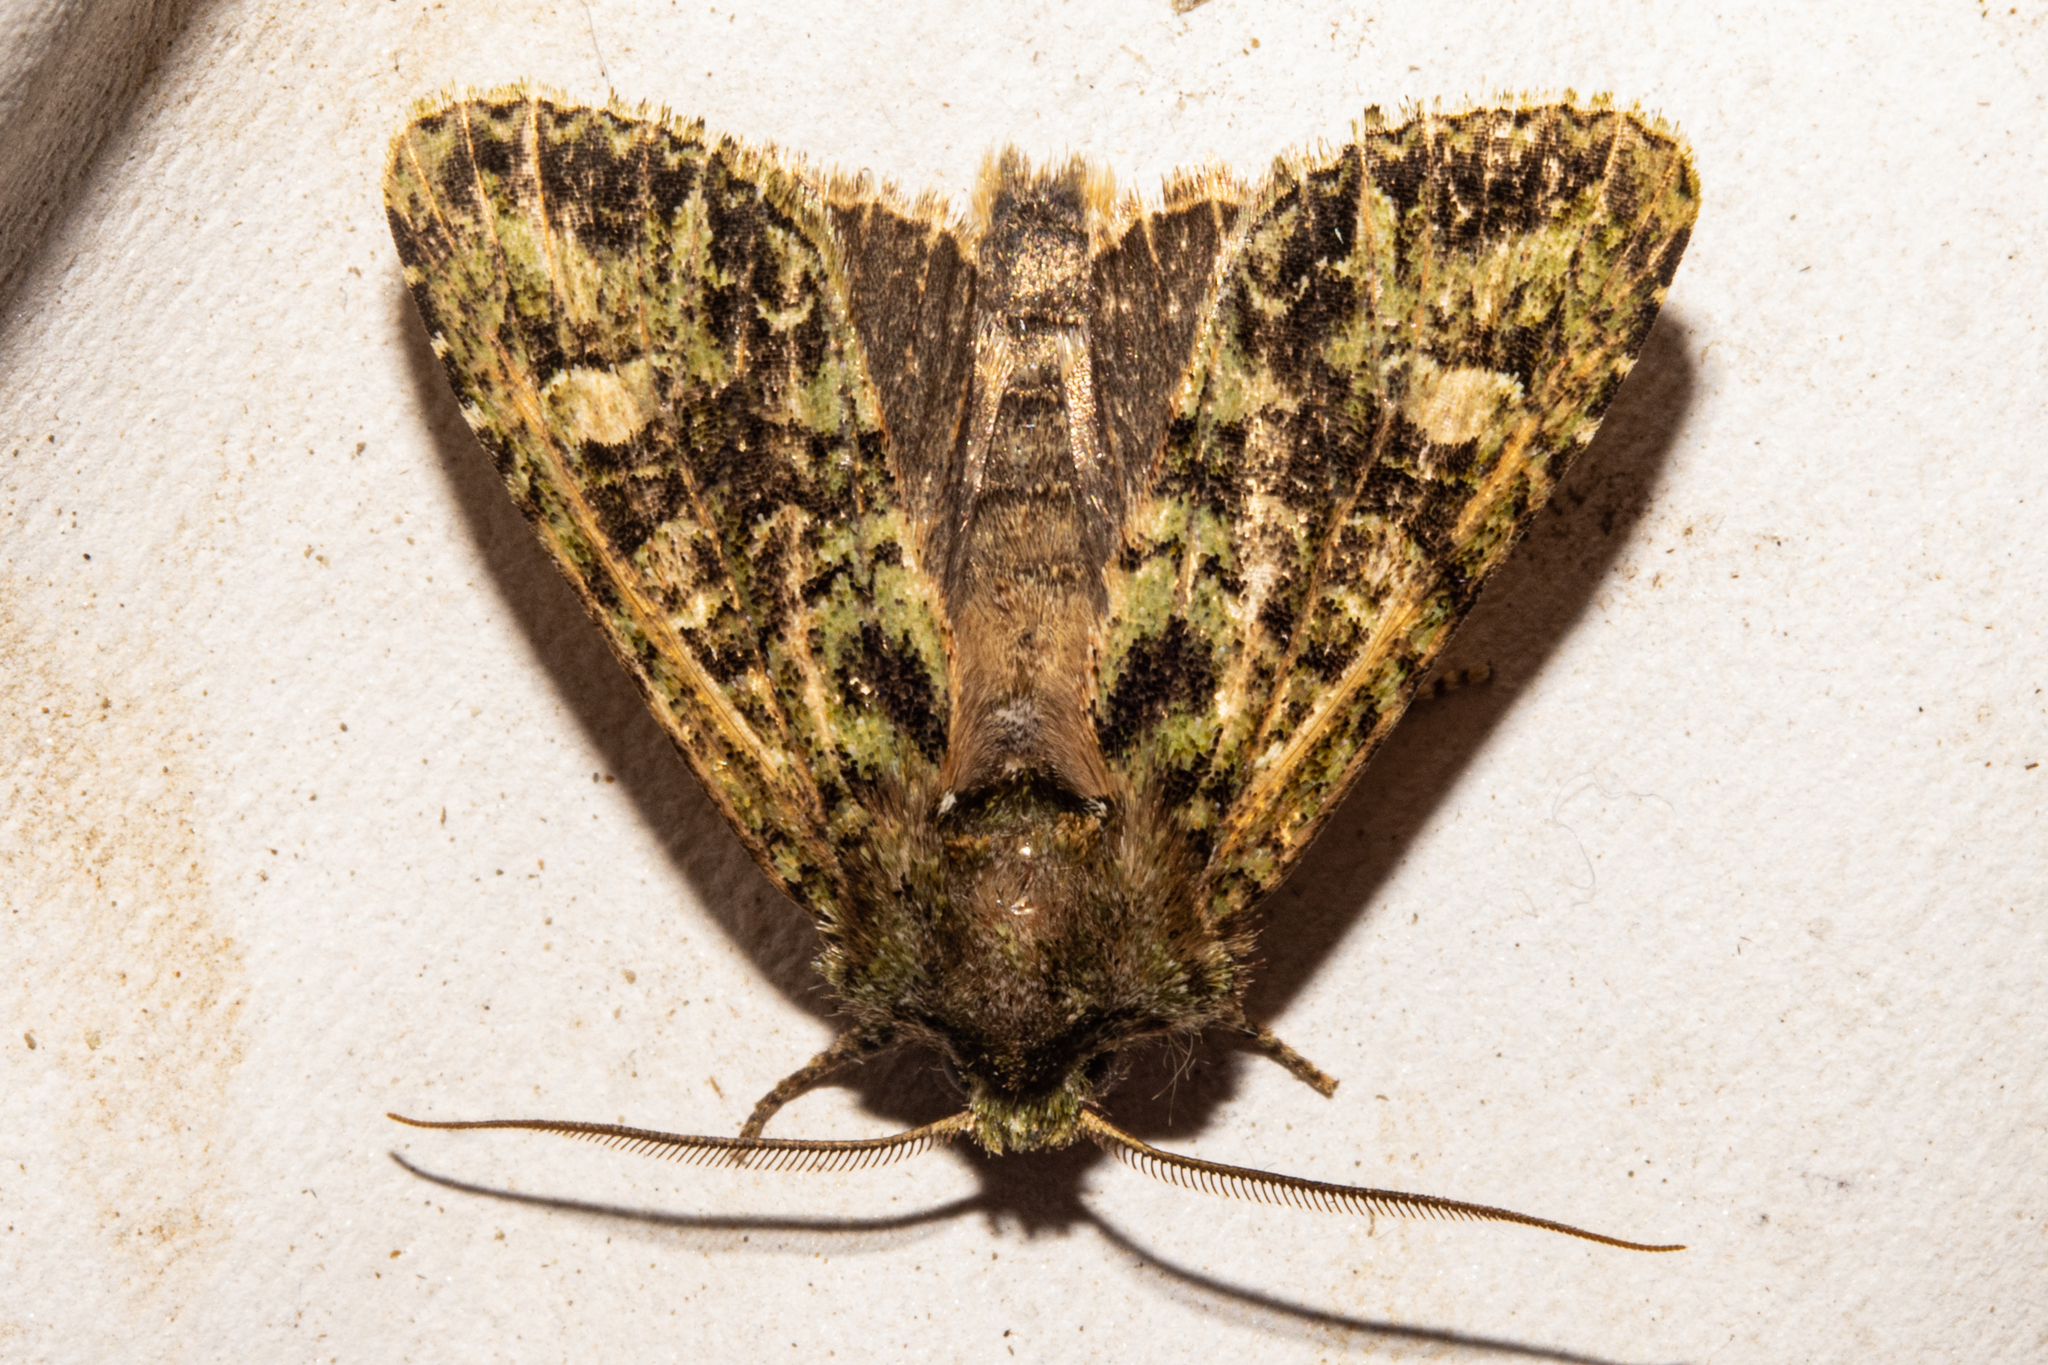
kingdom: Animalia
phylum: Arthropoda
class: Insecta
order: Lepidoptera
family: Noctuidae
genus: Ichneutica
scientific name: Ichneutica
